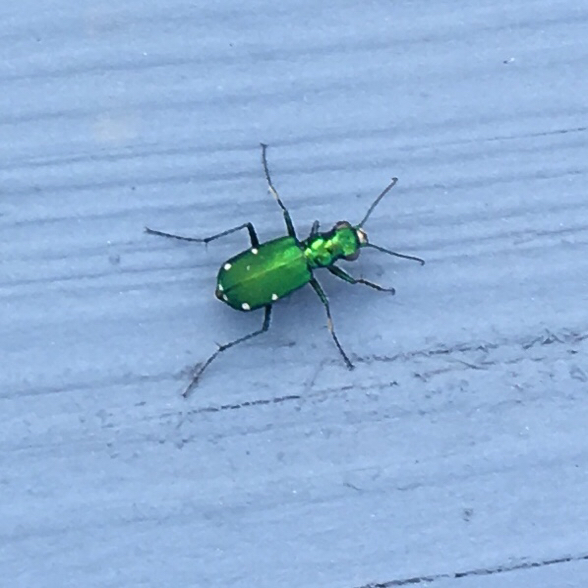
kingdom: Animalia
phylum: Arthropoda
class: Insecta
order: Coleoptera
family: Carabidae
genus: Cicindela
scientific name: Cicindela sexguttata
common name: Six-spotted tiger beetle
